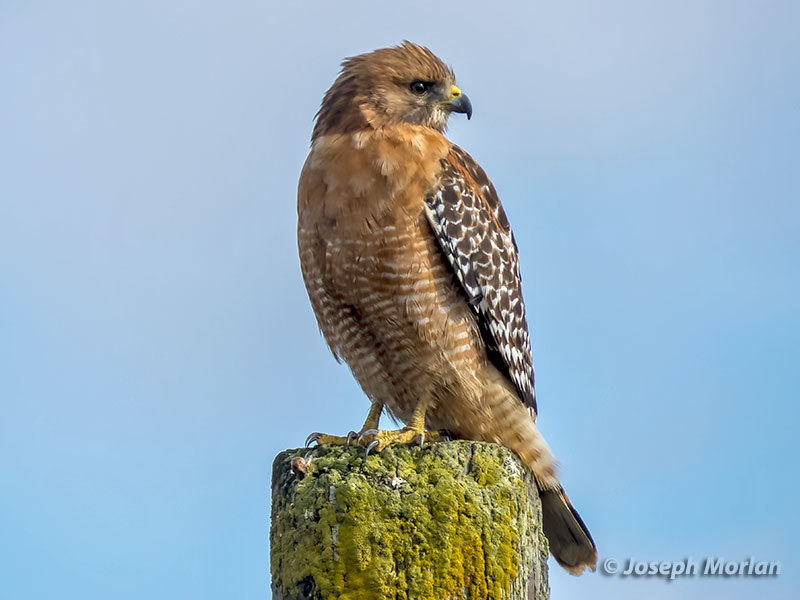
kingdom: Animalia
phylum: Chordata
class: Aves
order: Accipitriformes
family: Accipitridae
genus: Buteo
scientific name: Buteo lineatus
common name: Red-shouldered hawk
